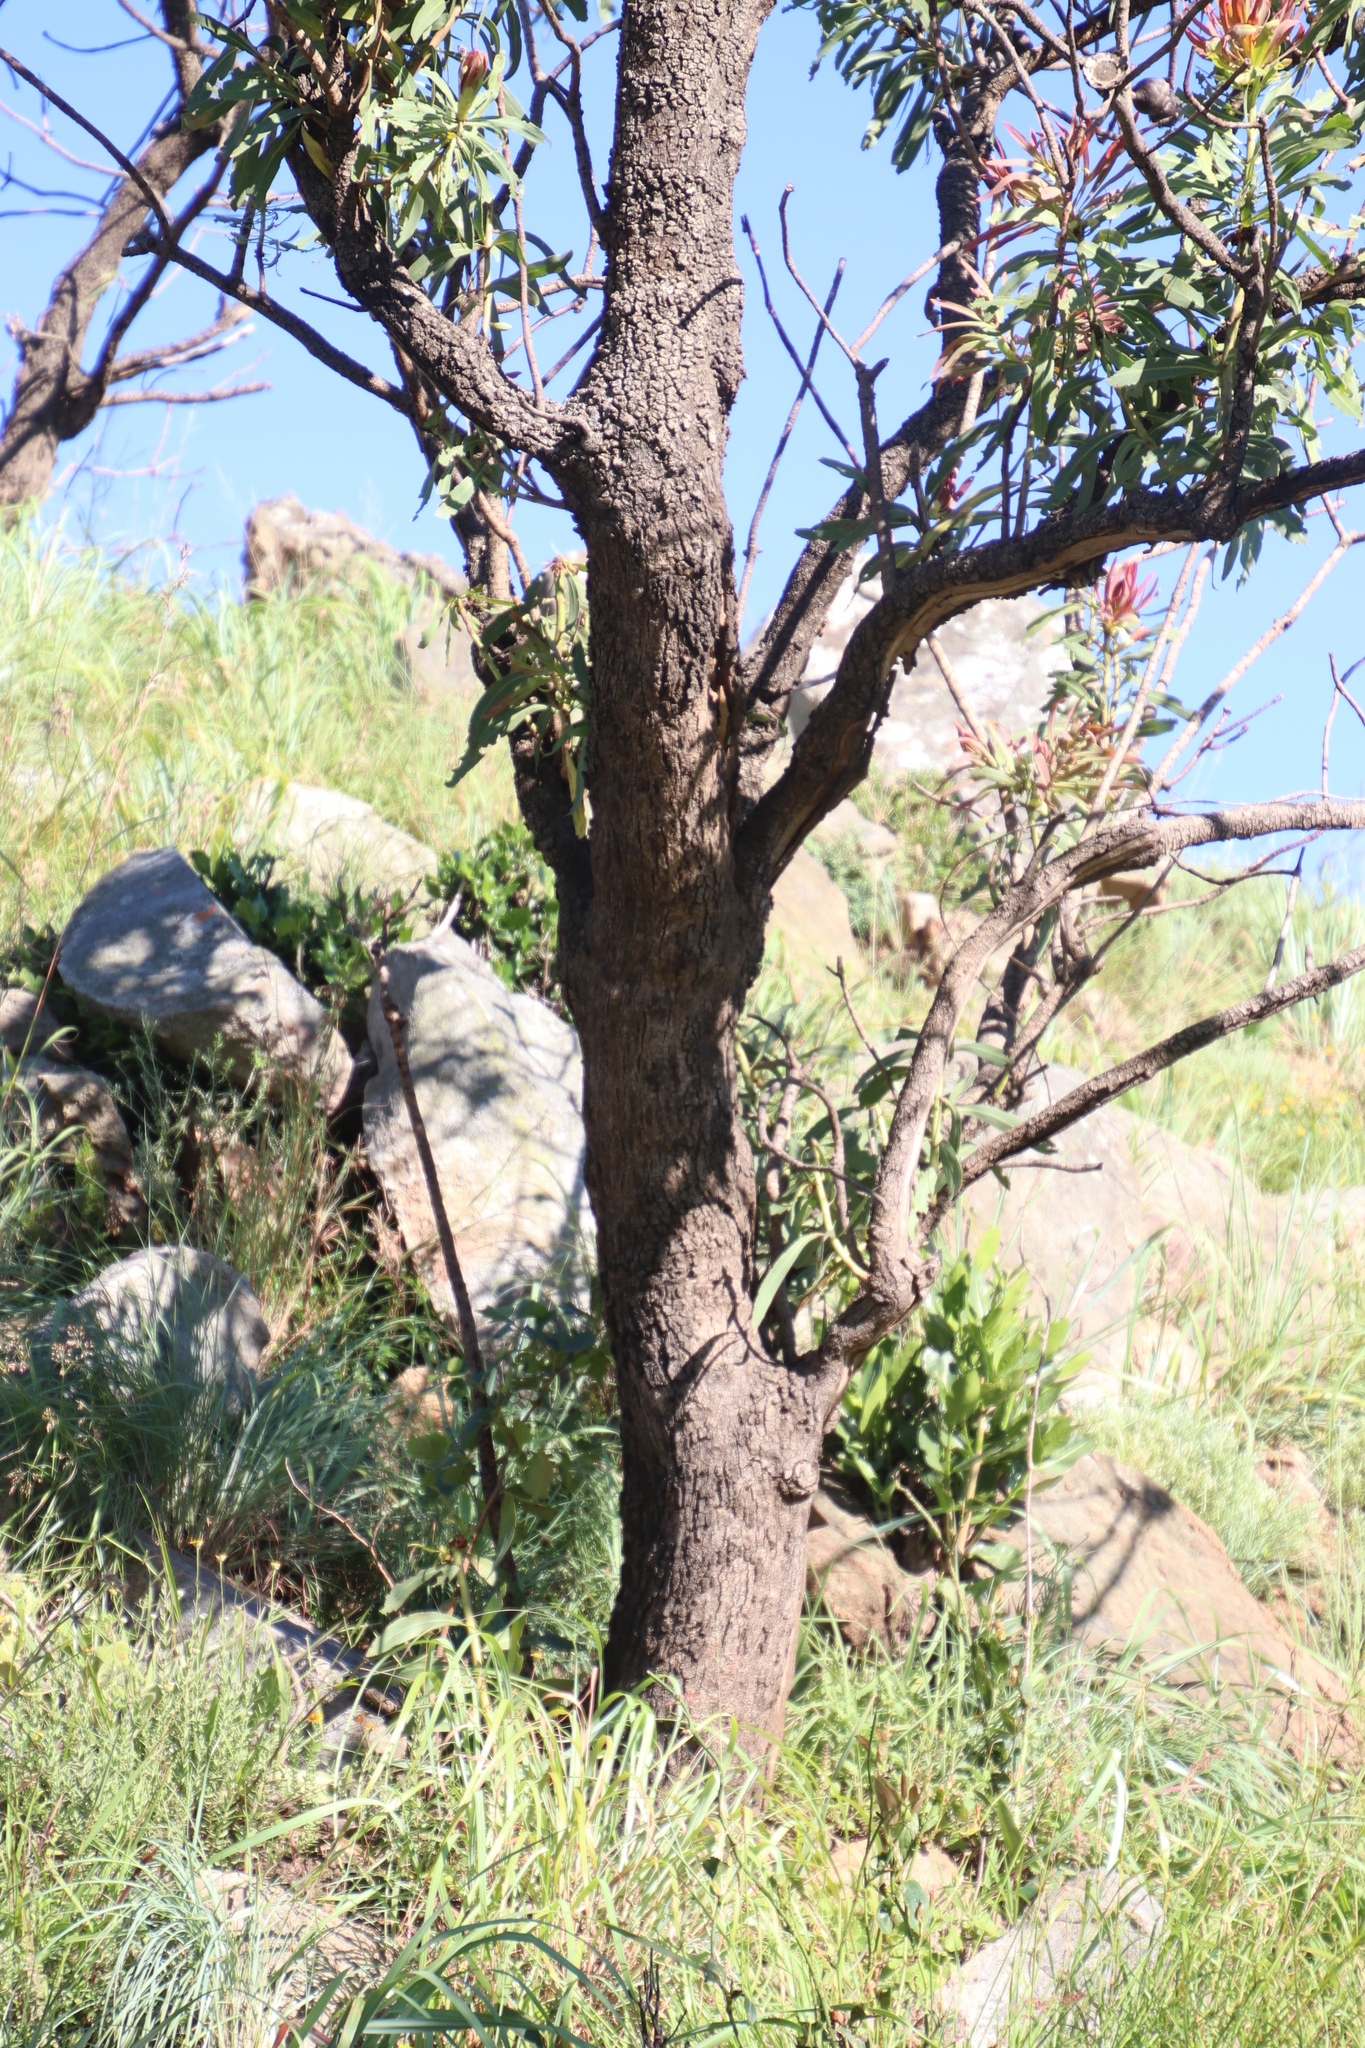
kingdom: Plantae
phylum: Tracheophyta
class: Magnoliopsida
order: Proteales
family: Proteaceae
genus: Protea
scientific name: Protea caffra
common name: Common sugarbush
